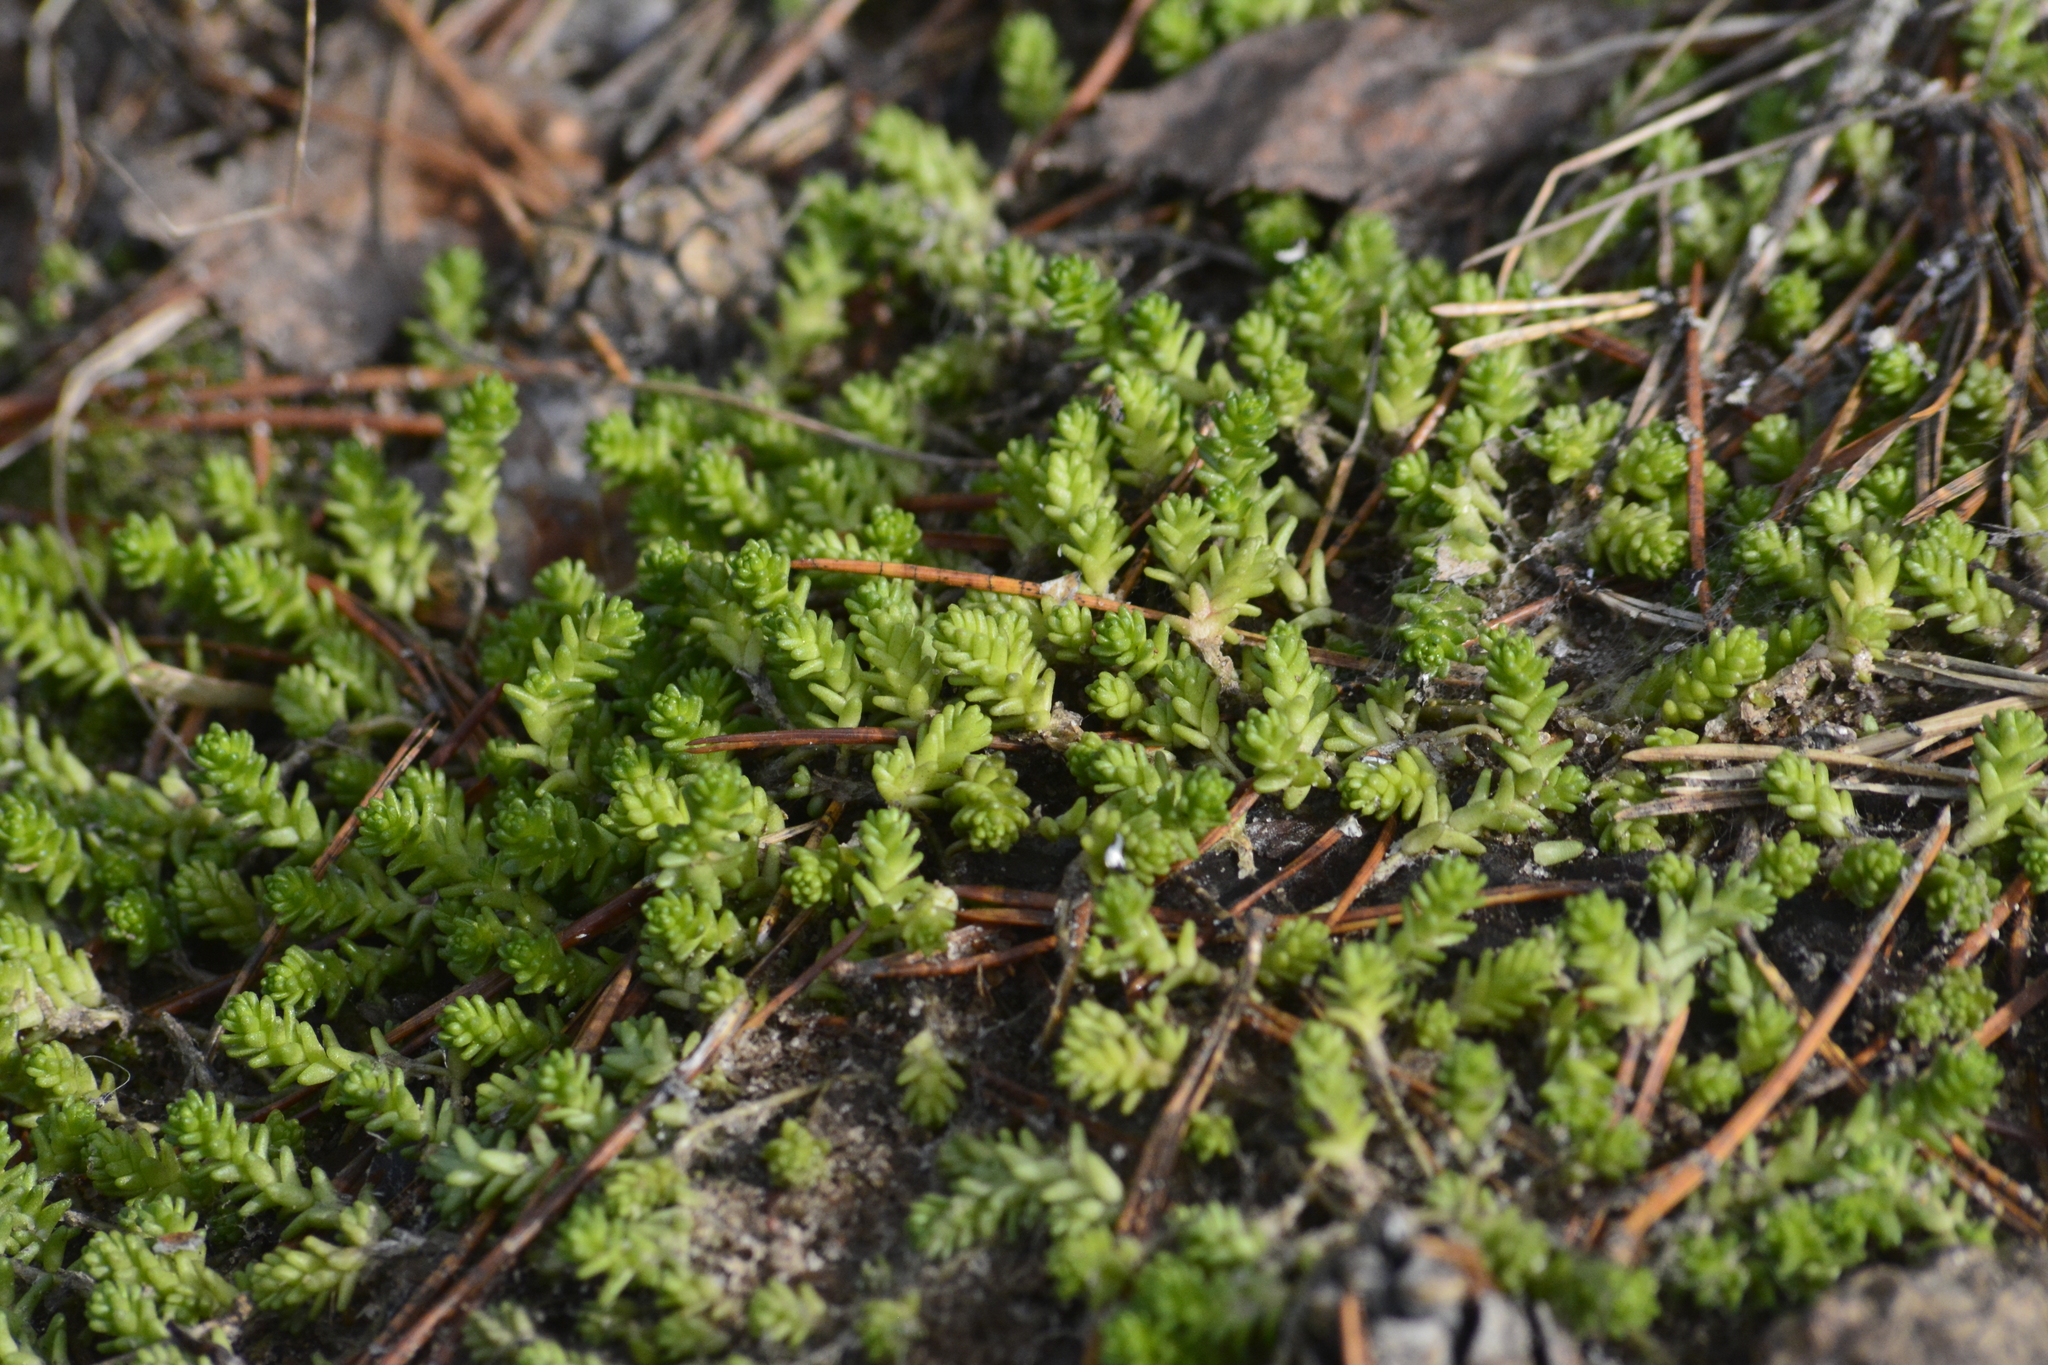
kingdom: Plantae
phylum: Tracheophyta
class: Magnoliopsida
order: Saxifragales
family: Crassulaceae
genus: Sedum
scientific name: Sedum acre
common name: Biting stonecrop
